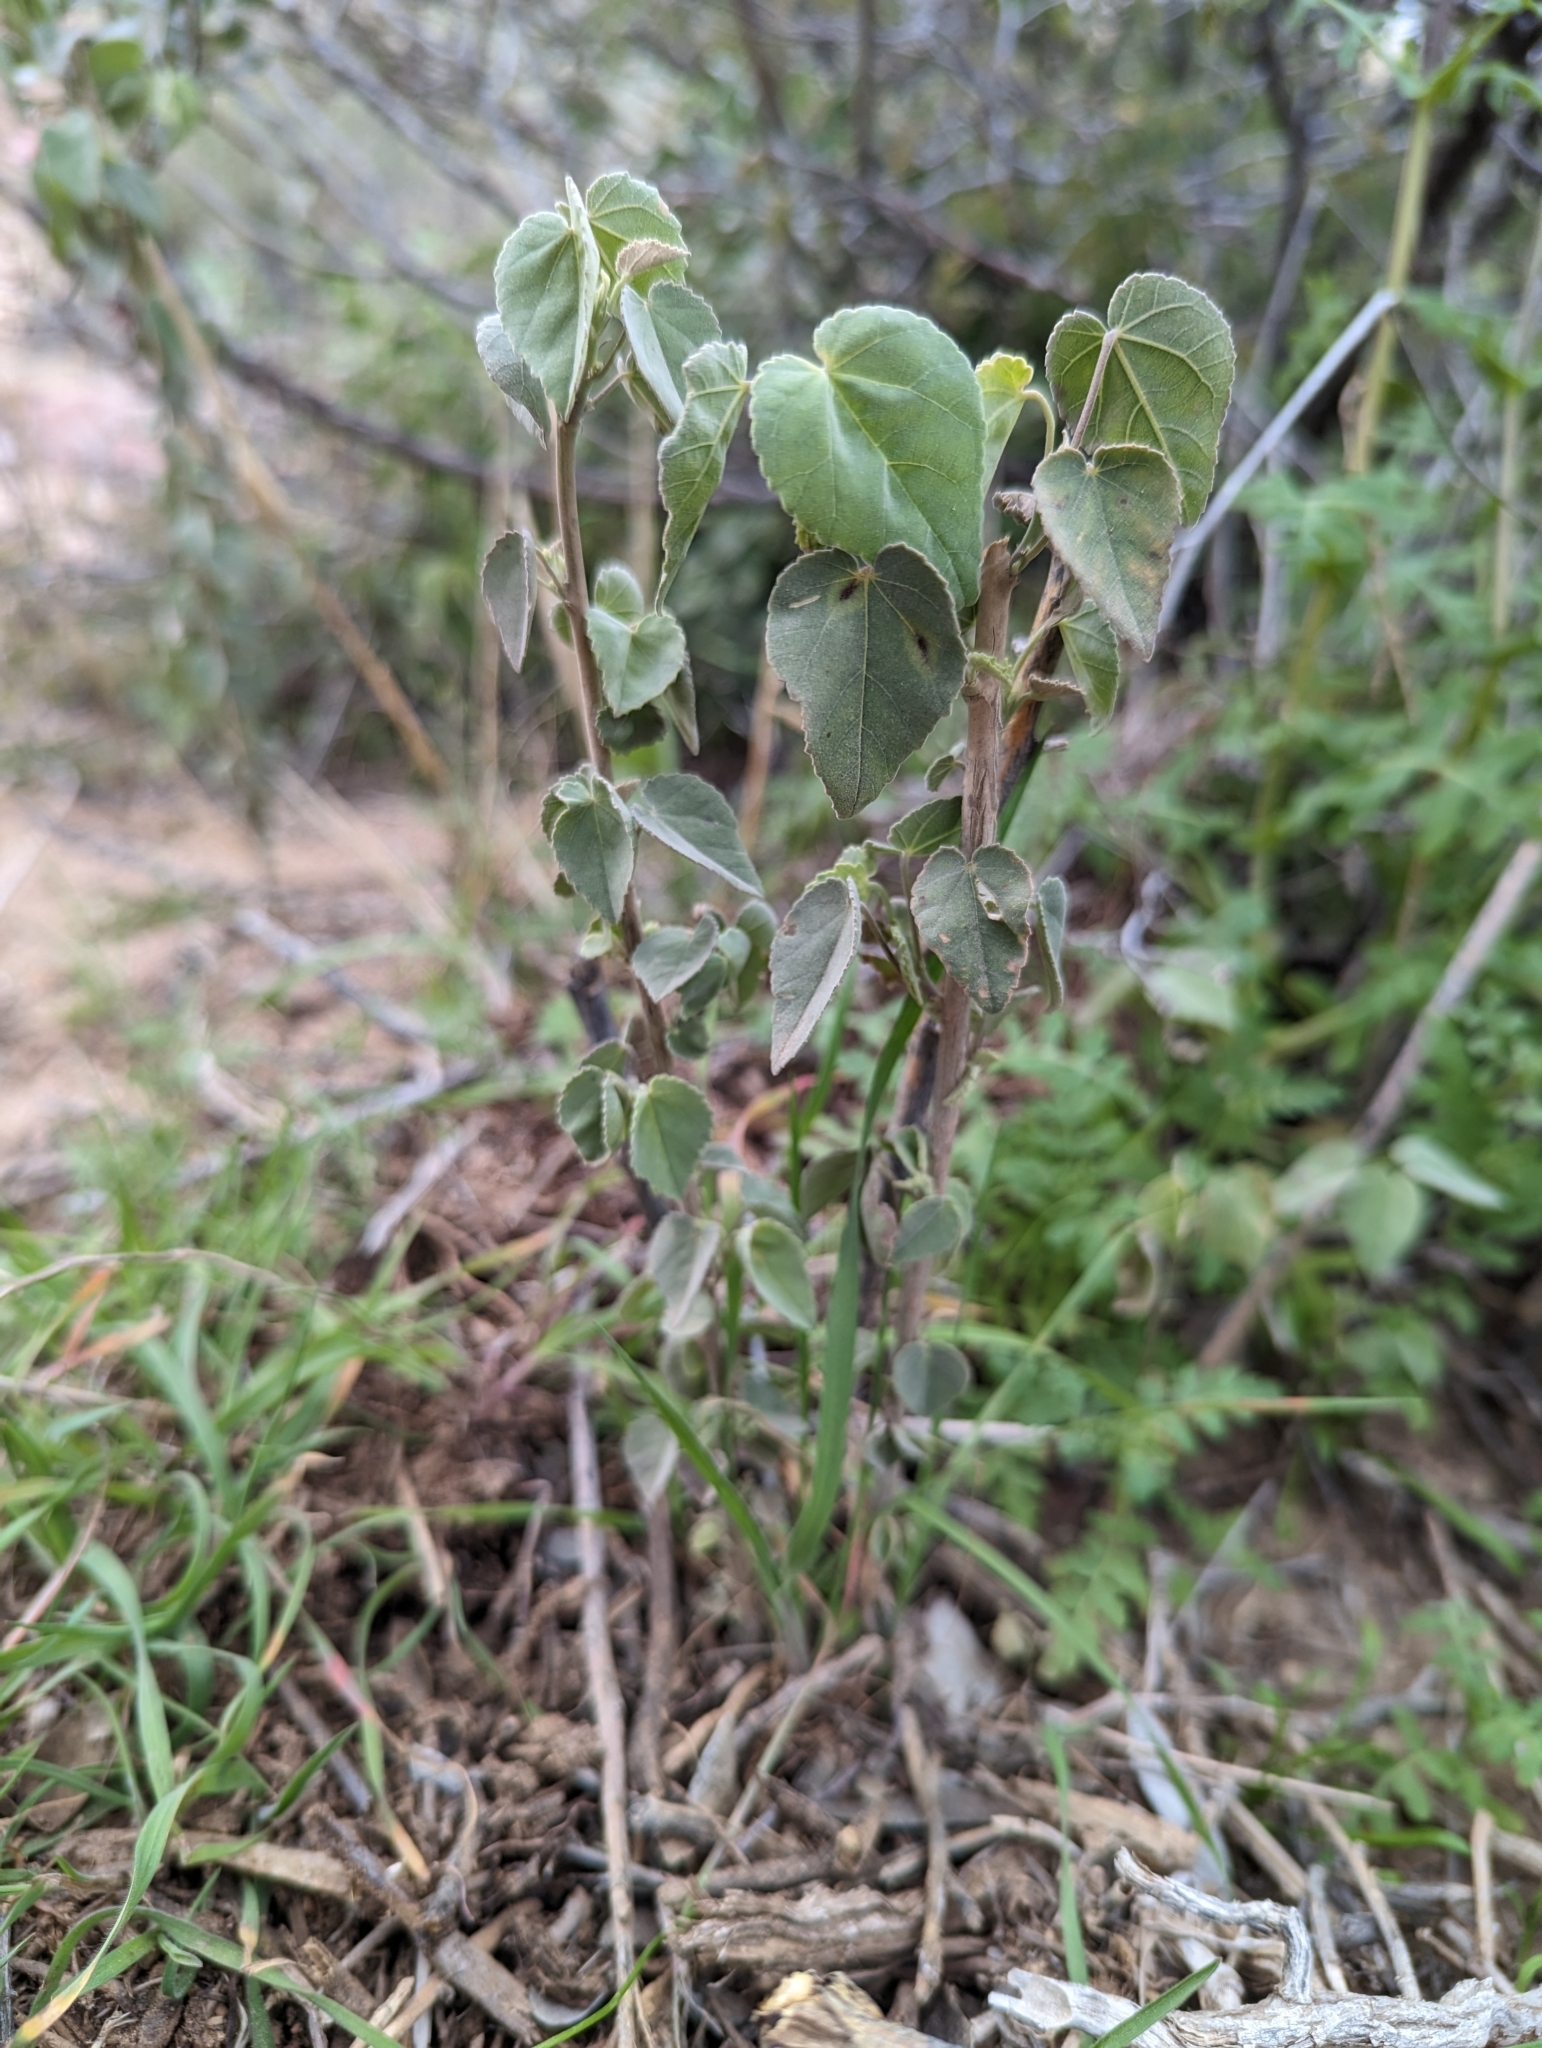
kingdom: Plantae
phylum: Tracheophyta
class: Magnoliopsida
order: Malvales
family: Malvaceae
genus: Abutilon
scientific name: Abutilon incanum
